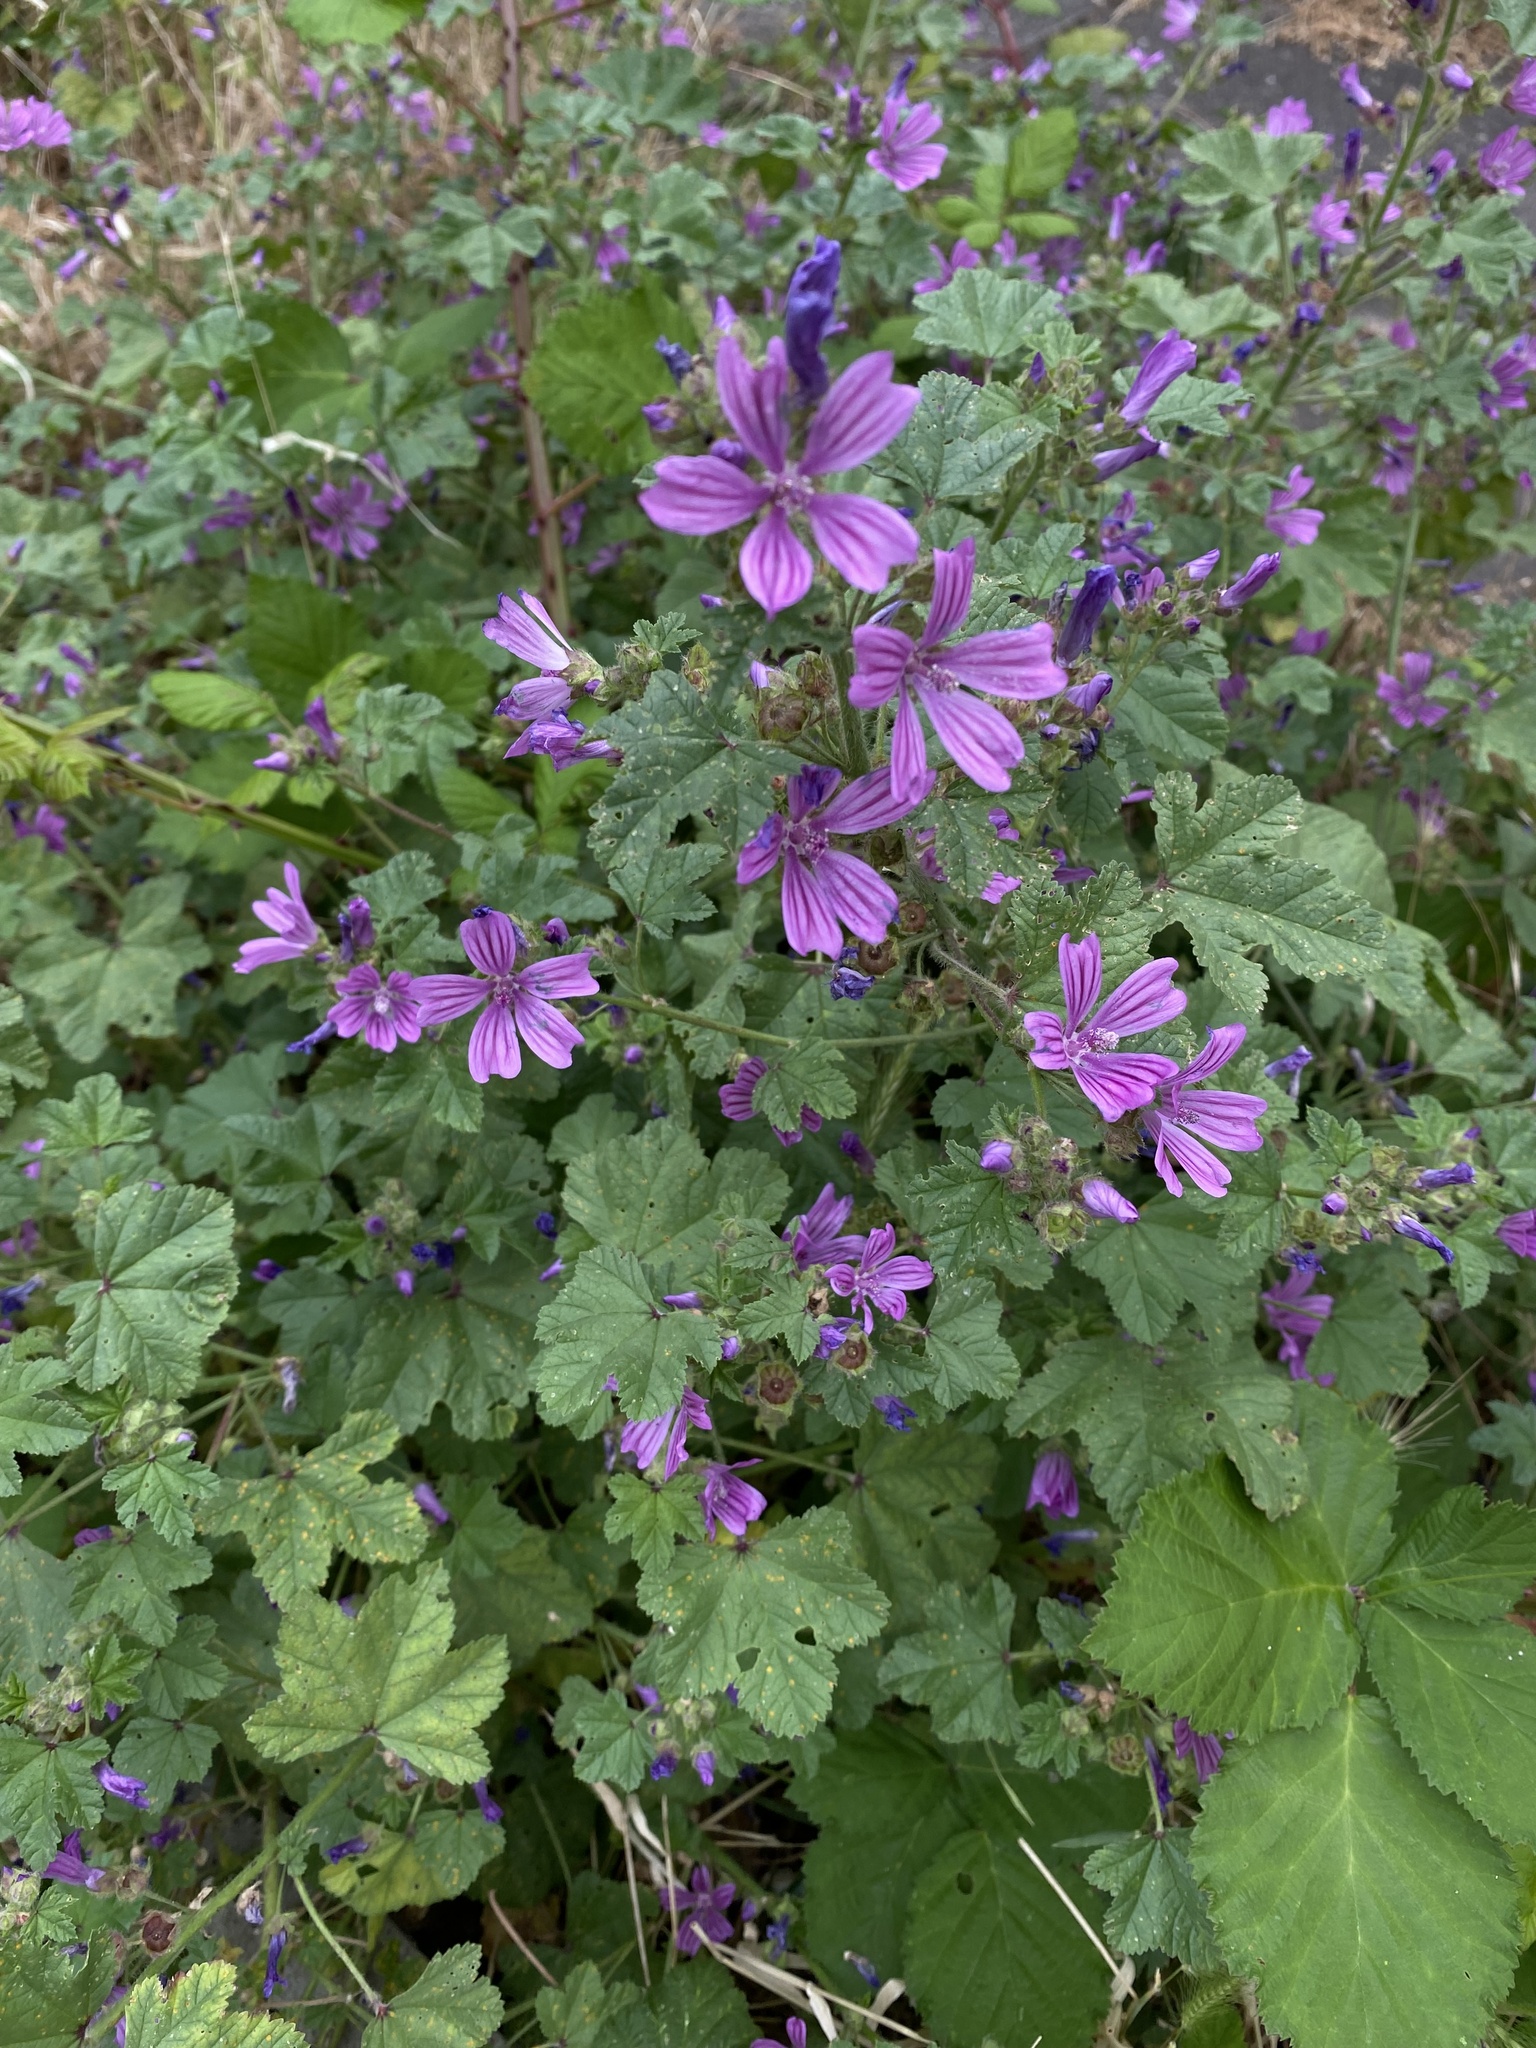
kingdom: Plantae
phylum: Tracheophyta
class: Magnoliopsida
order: Malvales
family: Malvaceae
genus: Malva
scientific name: Malva sylvestris
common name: Common mallow
